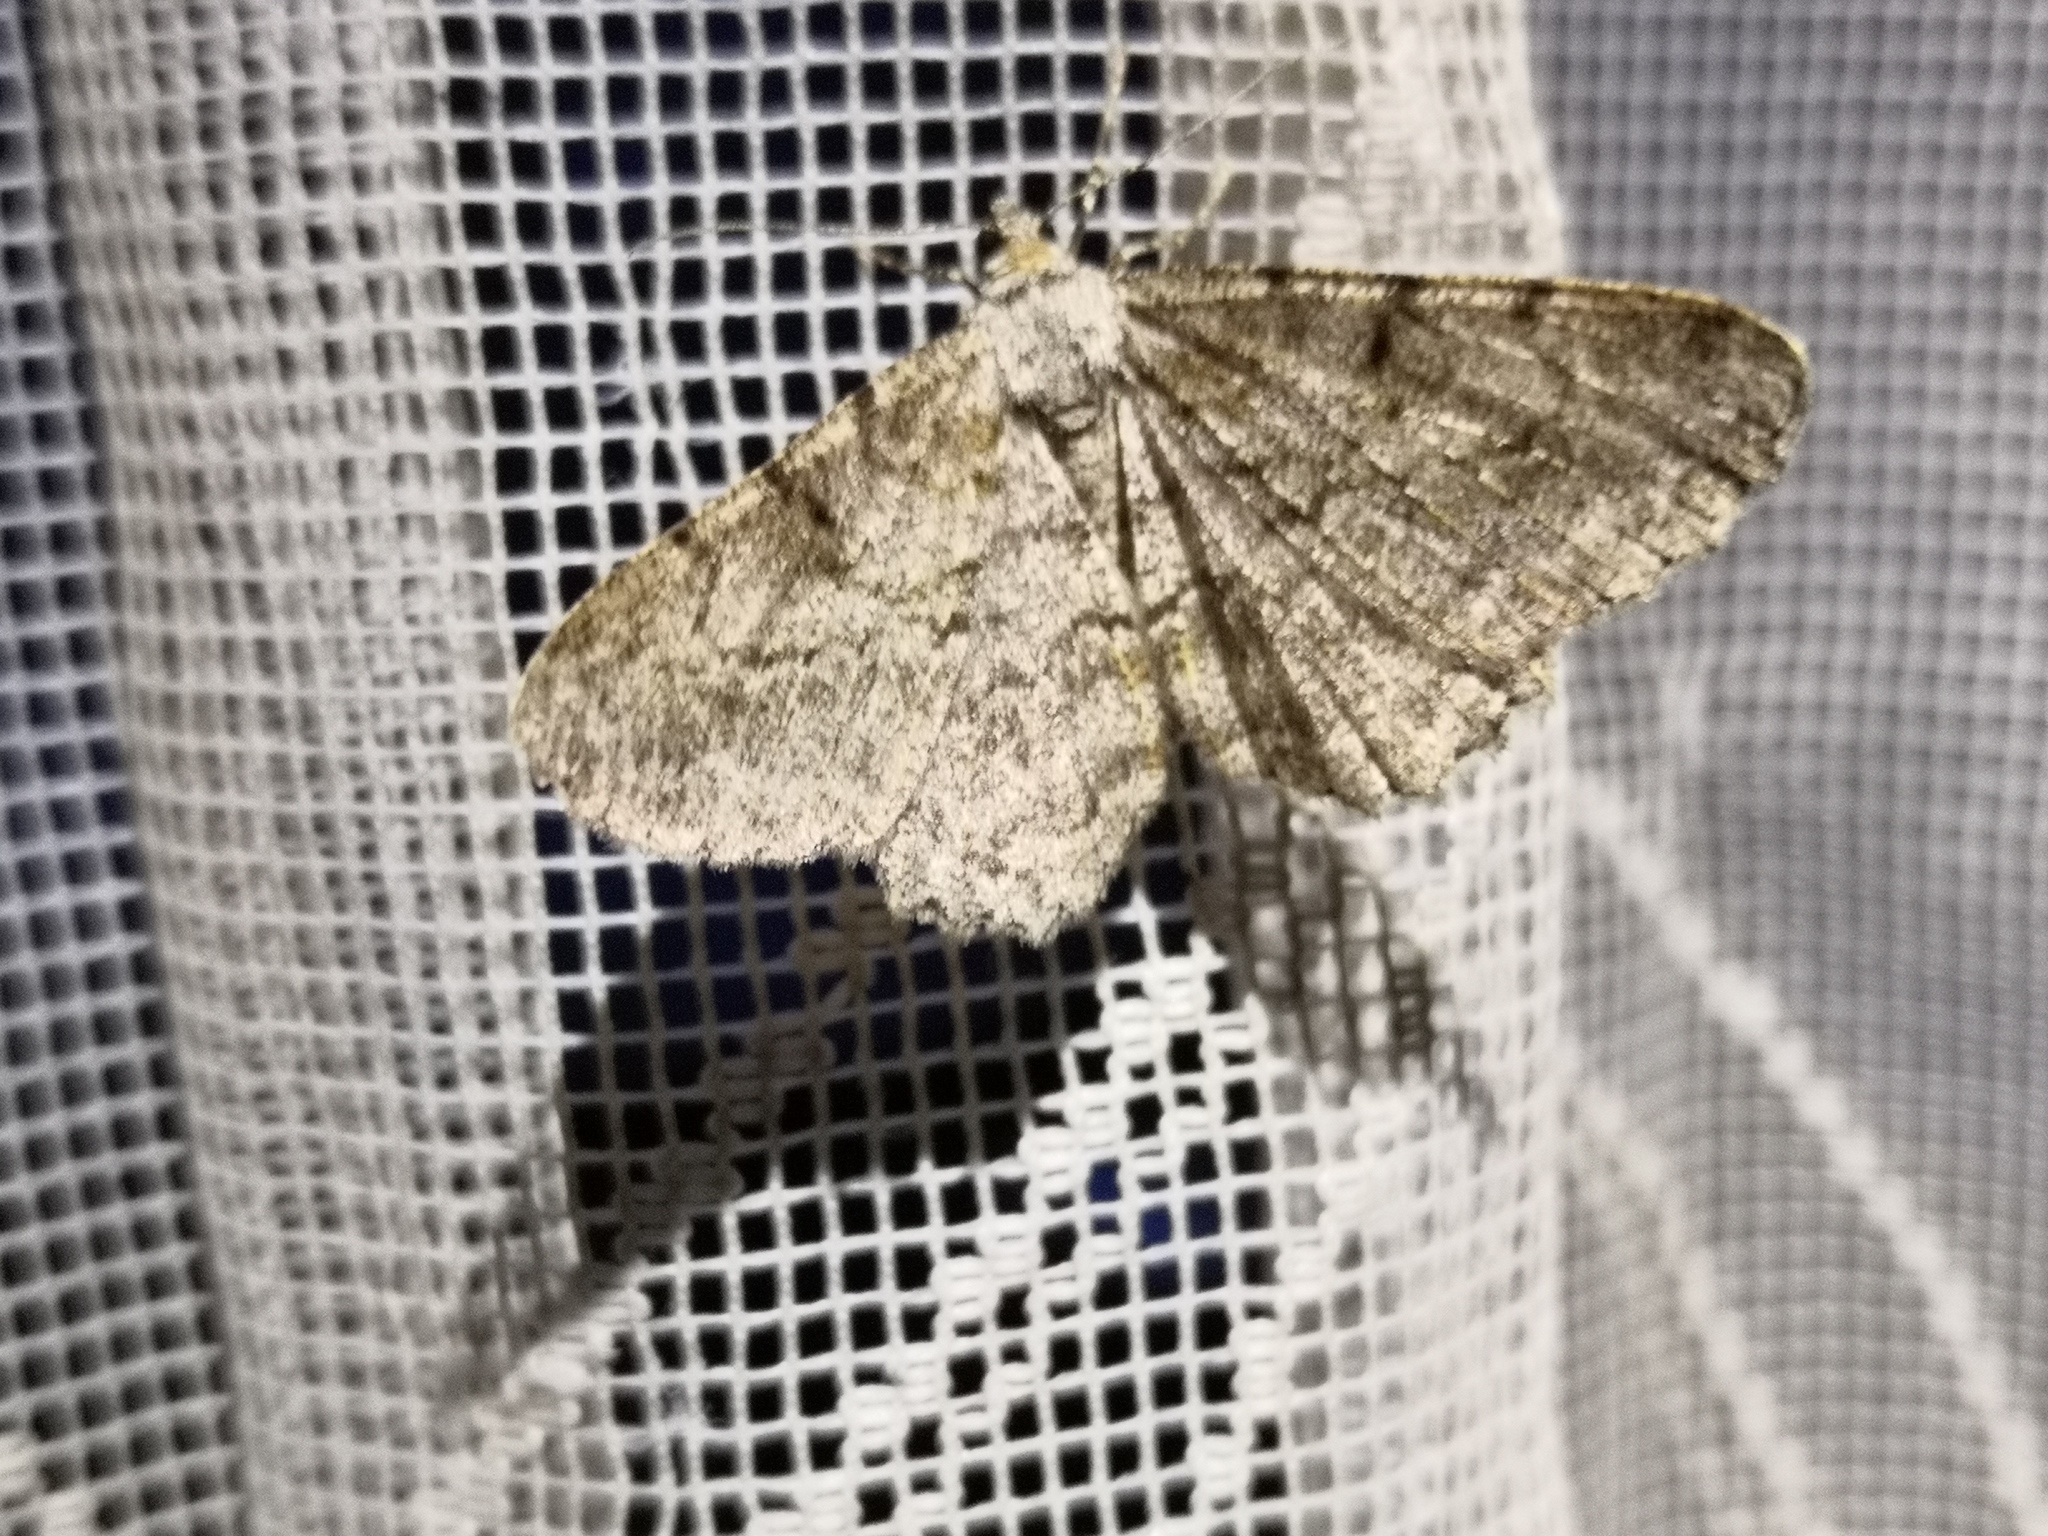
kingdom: Animalia
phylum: Arthropoda
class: Insecta
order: Lepidoptera
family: Geometridae
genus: Peribatodes
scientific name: Peribatodes rhomboidaria
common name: Willow beauty
